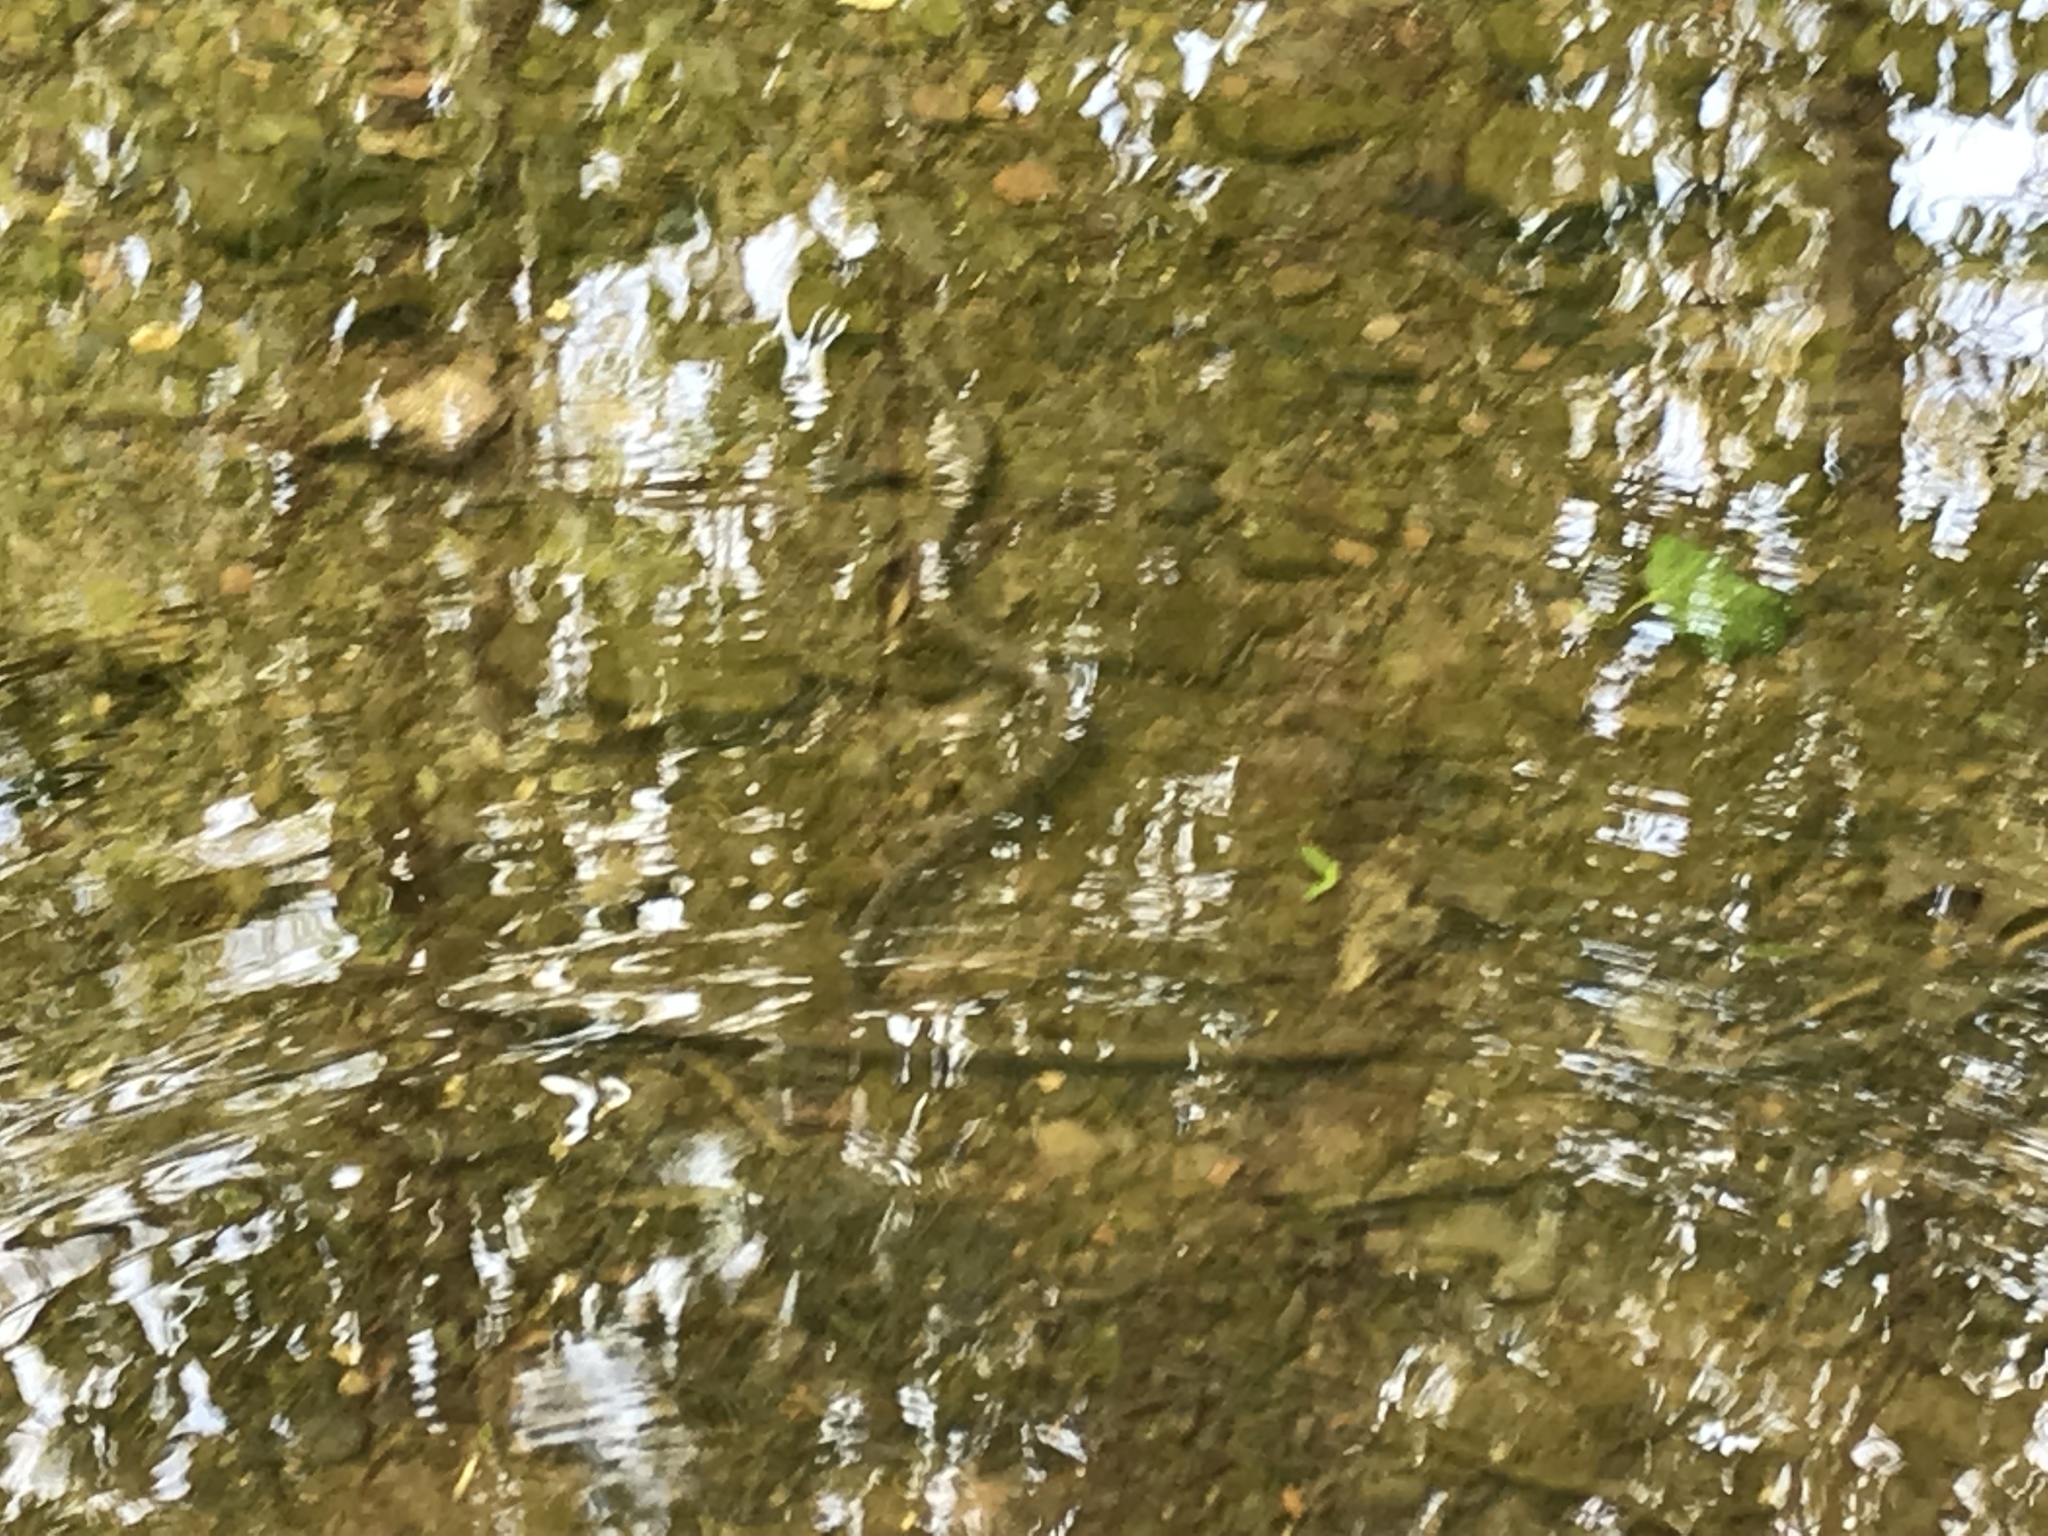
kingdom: Animalia
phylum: Chordata
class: Squamata
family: Colubridae
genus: Nerodia
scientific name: Nerodia sipedon
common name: Northern water snake
